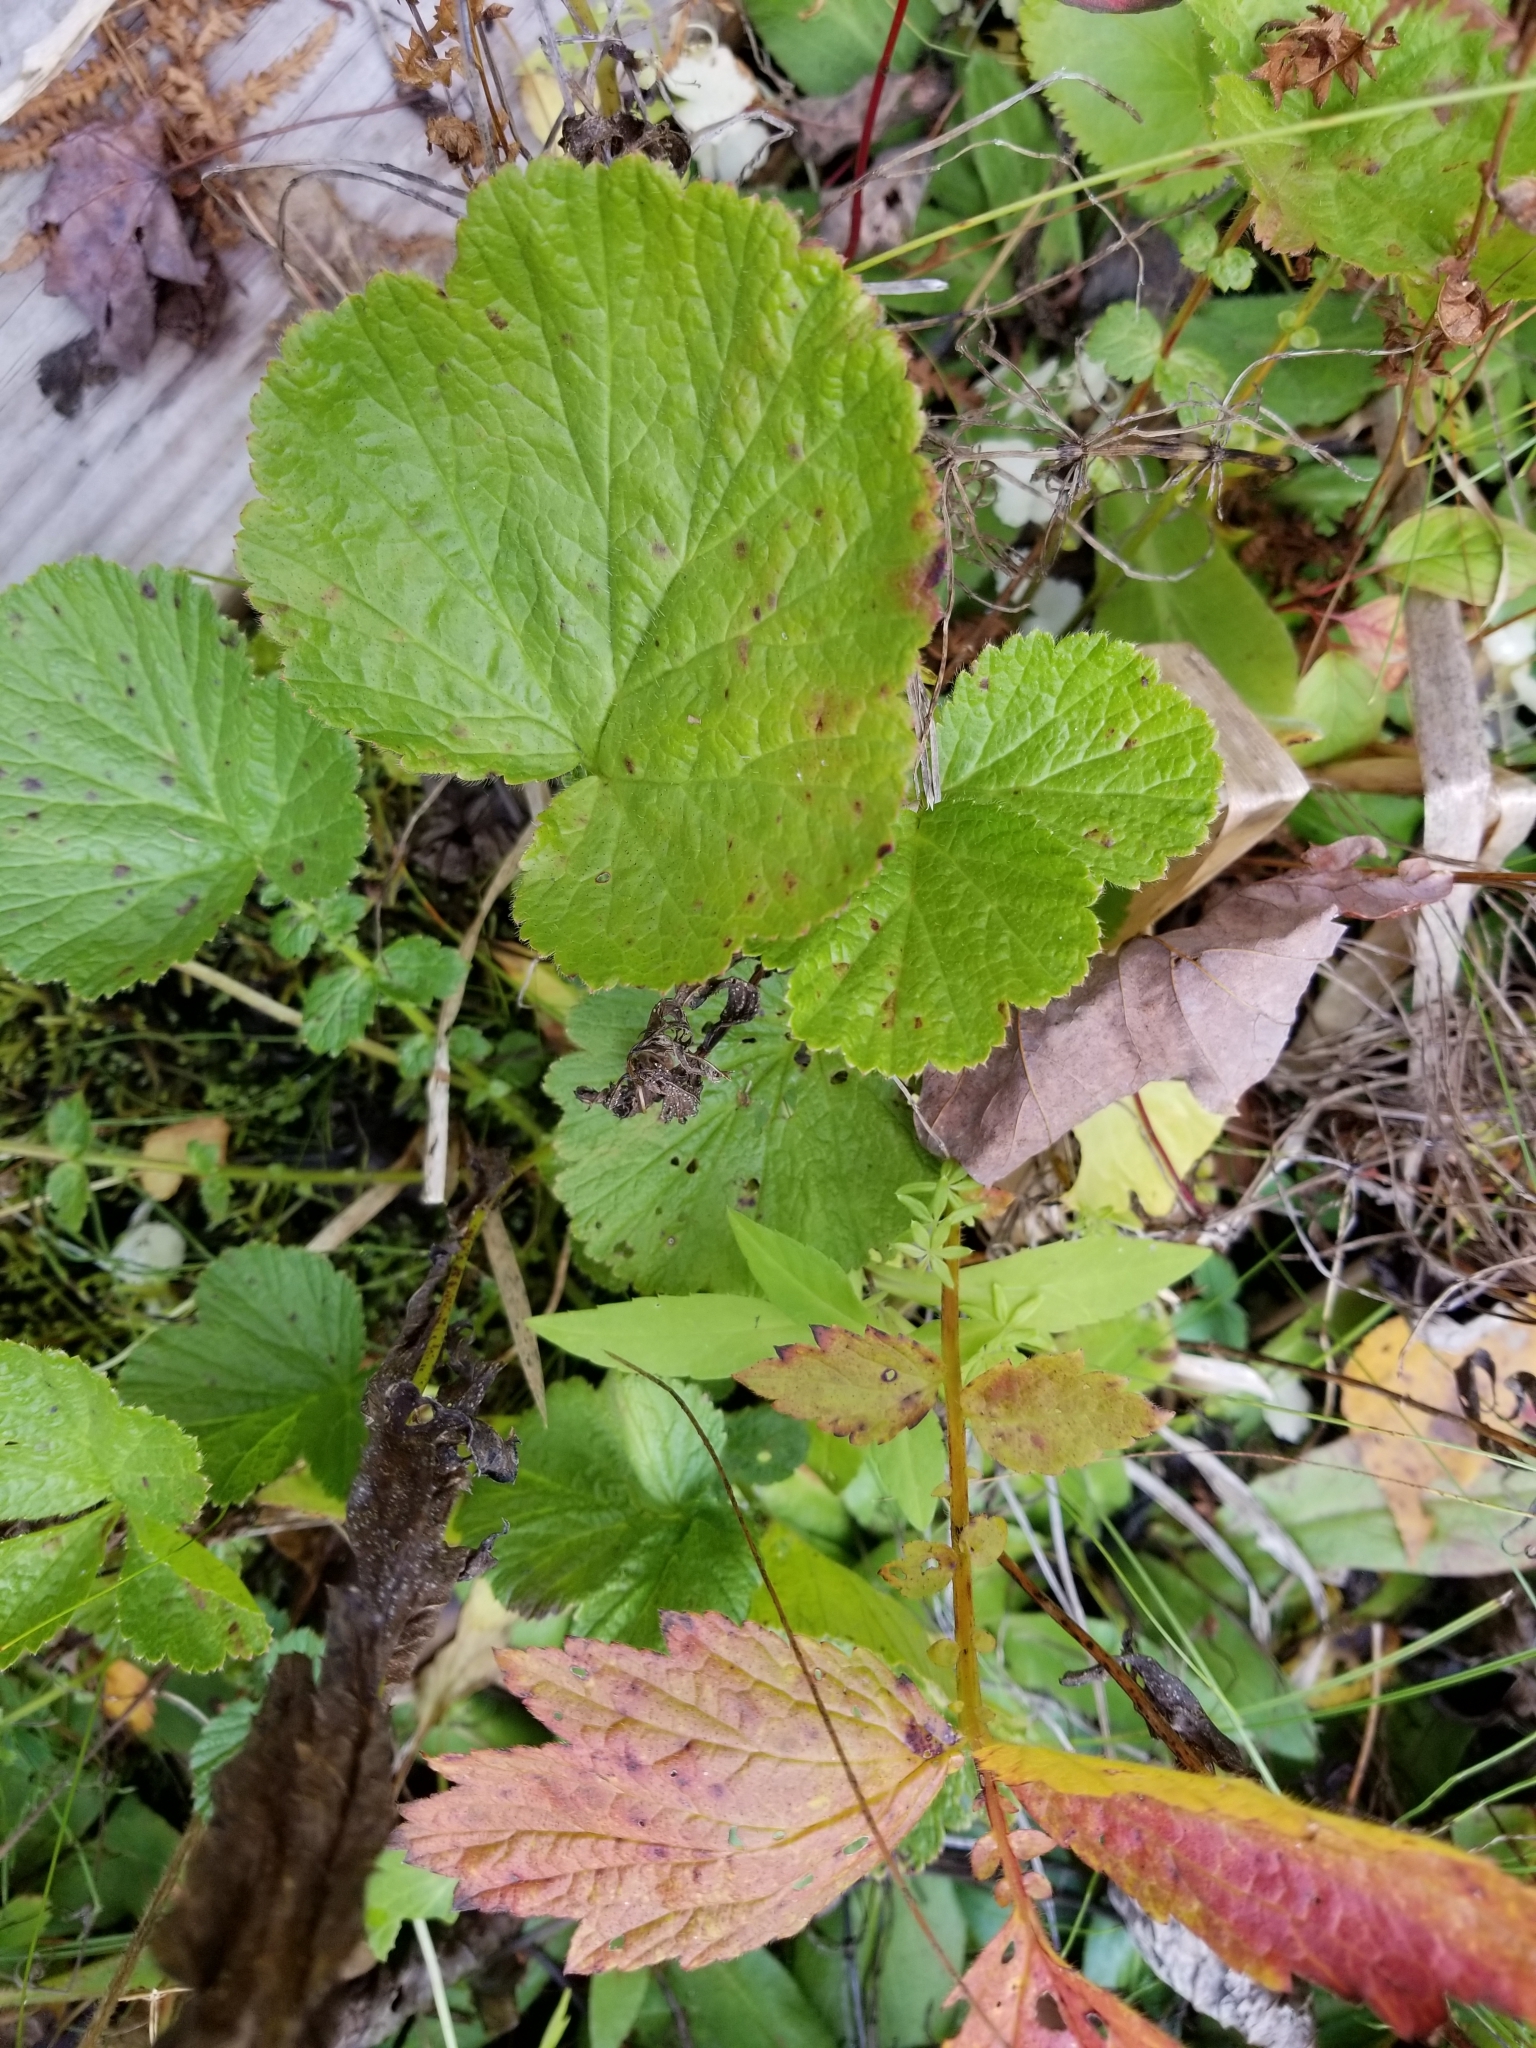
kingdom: Plantae
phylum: Tracheophyta
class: Magnoliopsida
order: Rosales
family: Rosaceae
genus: Geum
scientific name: Geum rivale
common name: Water avens
